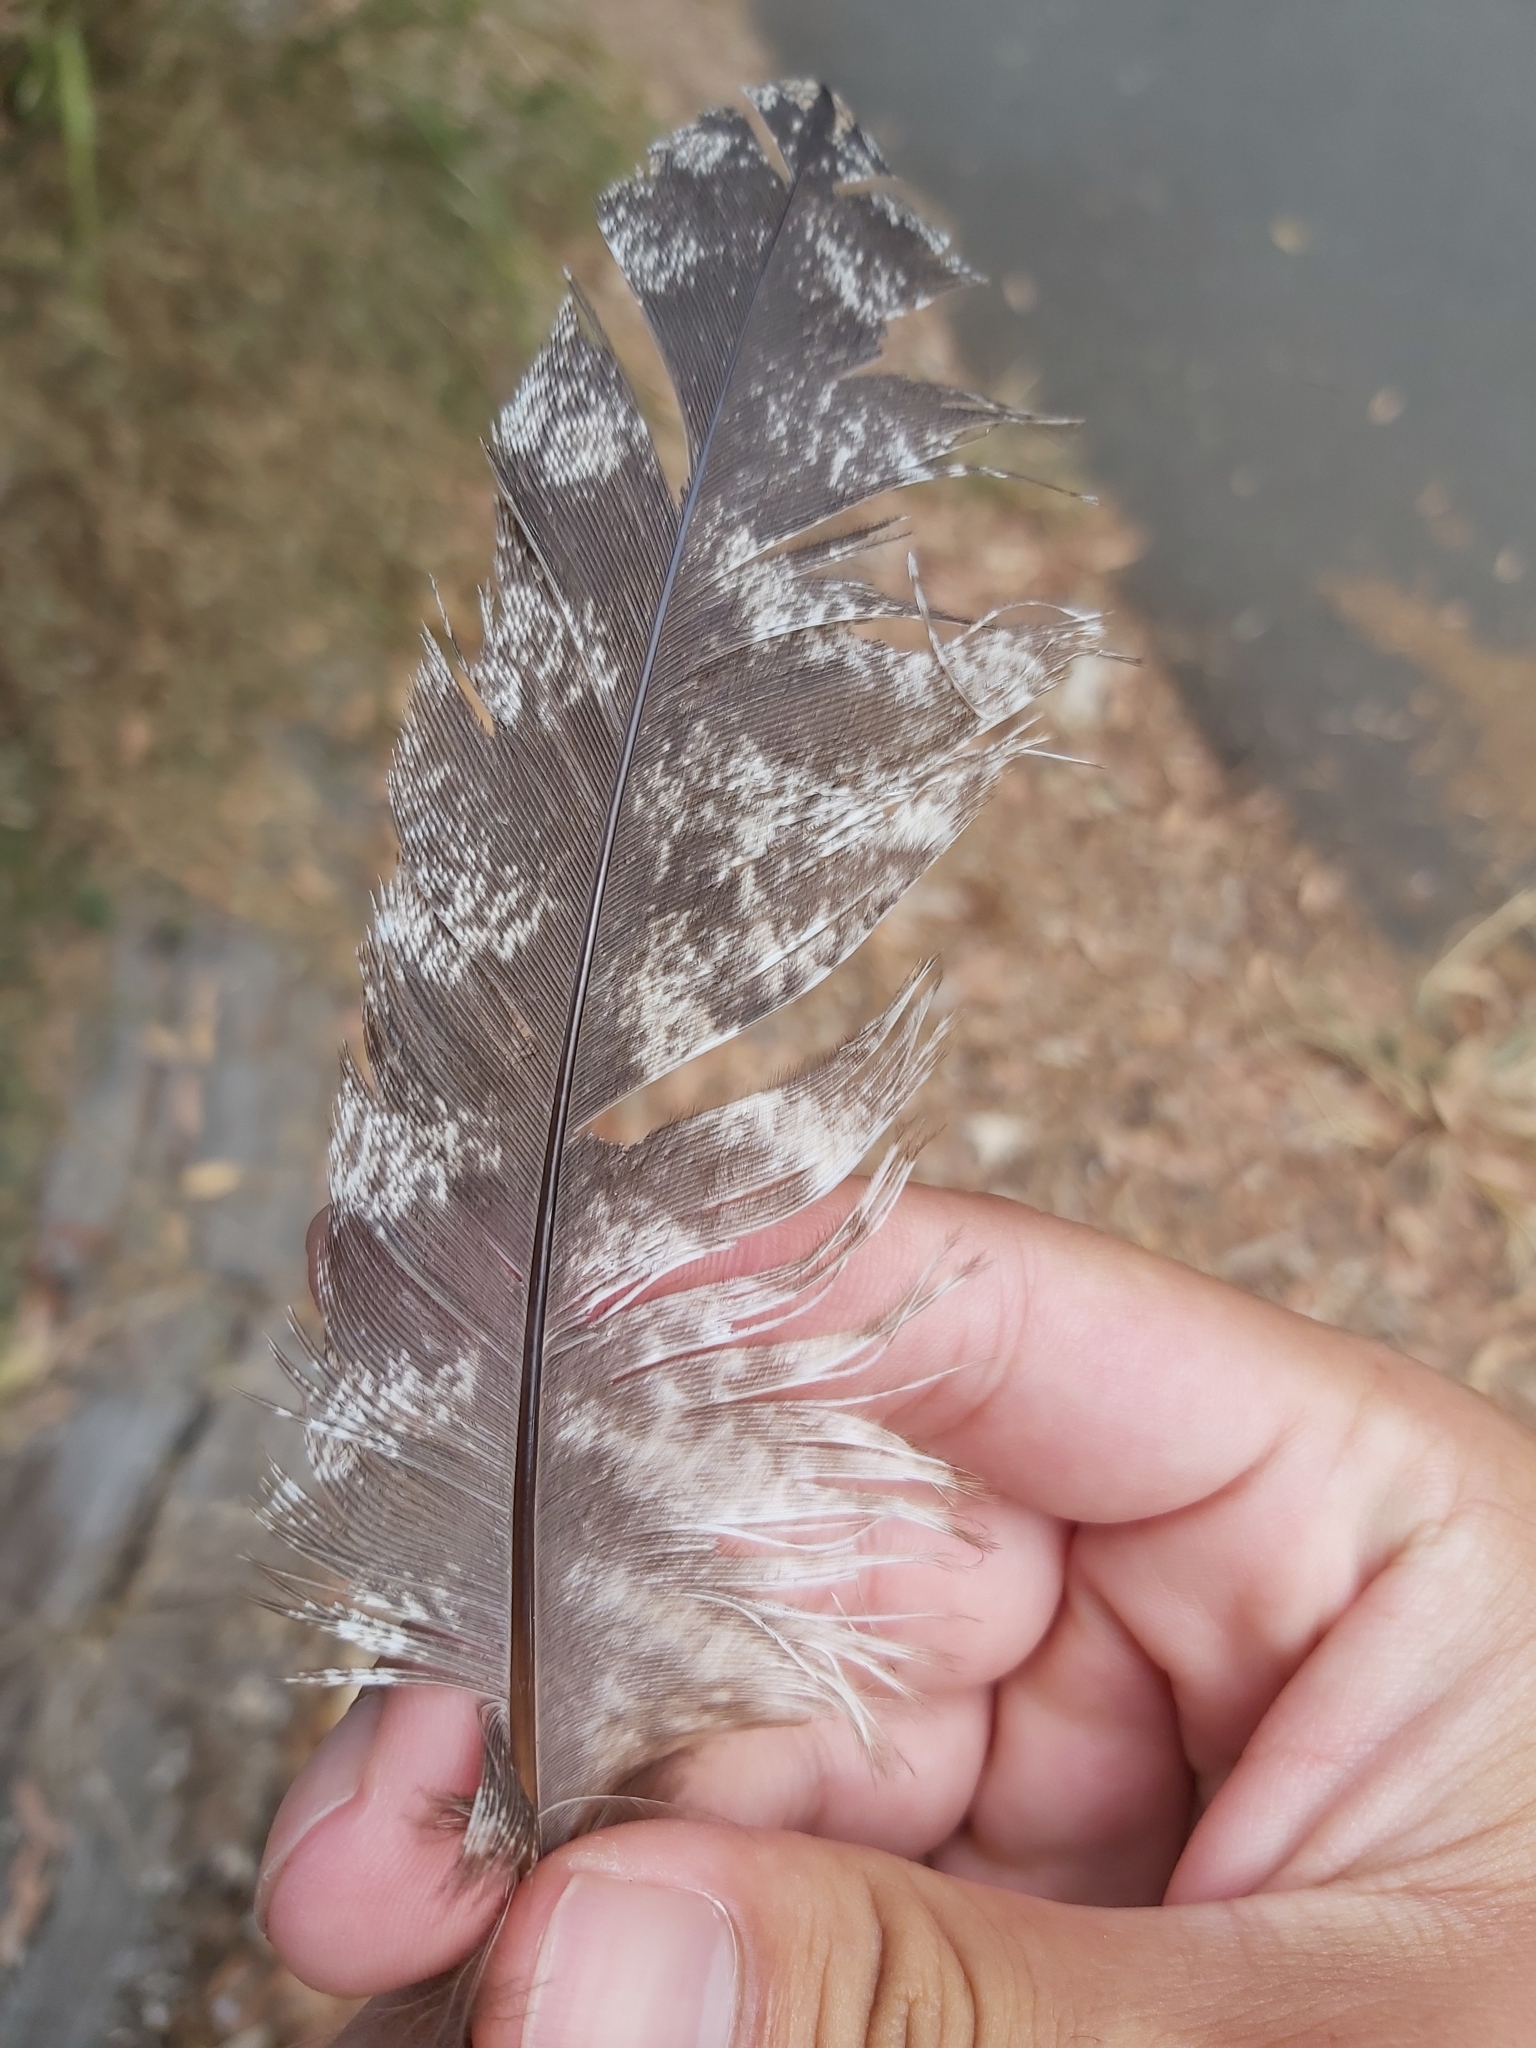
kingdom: Animalia
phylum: Chordata
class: Aves
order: Caprimulgiformes
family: Podargidae
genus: Podargus
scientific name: Podargus strigoides
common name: Tawny frogmouth
